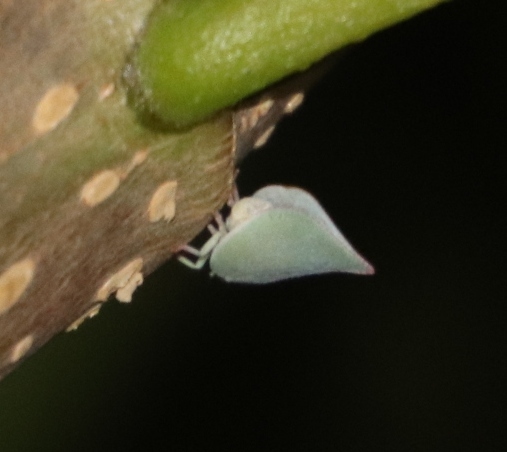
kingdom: Animalia
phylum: Arthropoda
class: Insecta
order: Hemiptera
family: Flatidae
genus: Siphanta
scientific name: Siphanta acuta
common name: Torpedo bug
